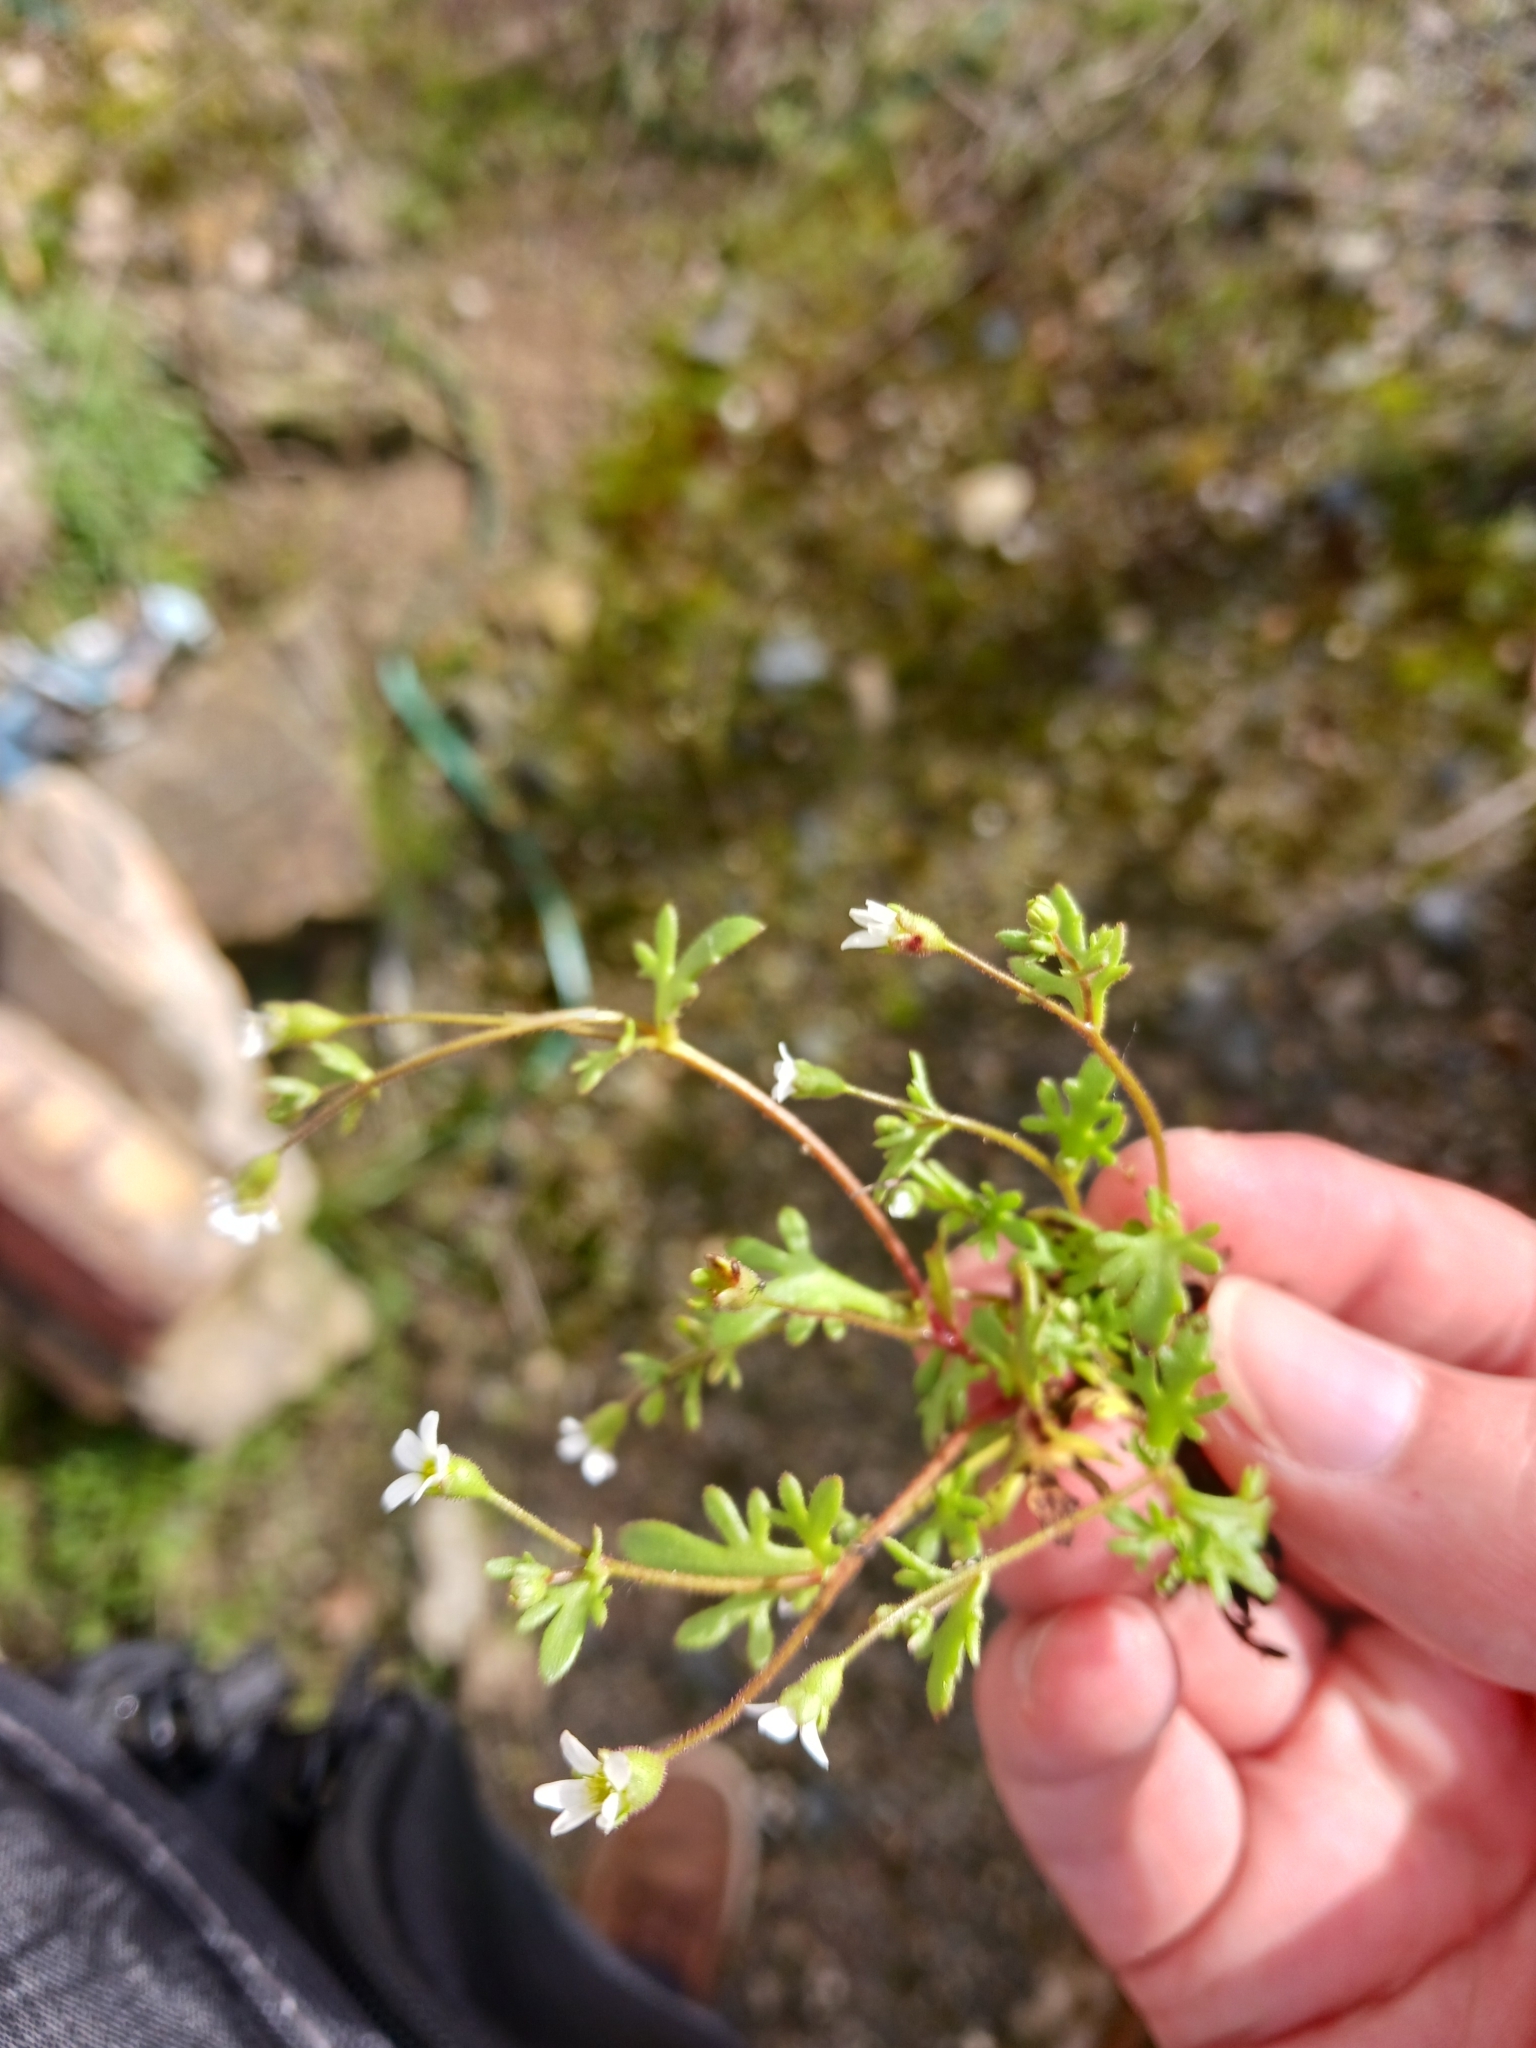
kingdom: Plantae
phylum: Tracheophyta
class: Magnoliopsida
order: Saxifragales
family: Saxifragaceae
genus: Saxifraga
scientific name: Saxifraga tridactylites
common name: Rue-leaved saxifrage
